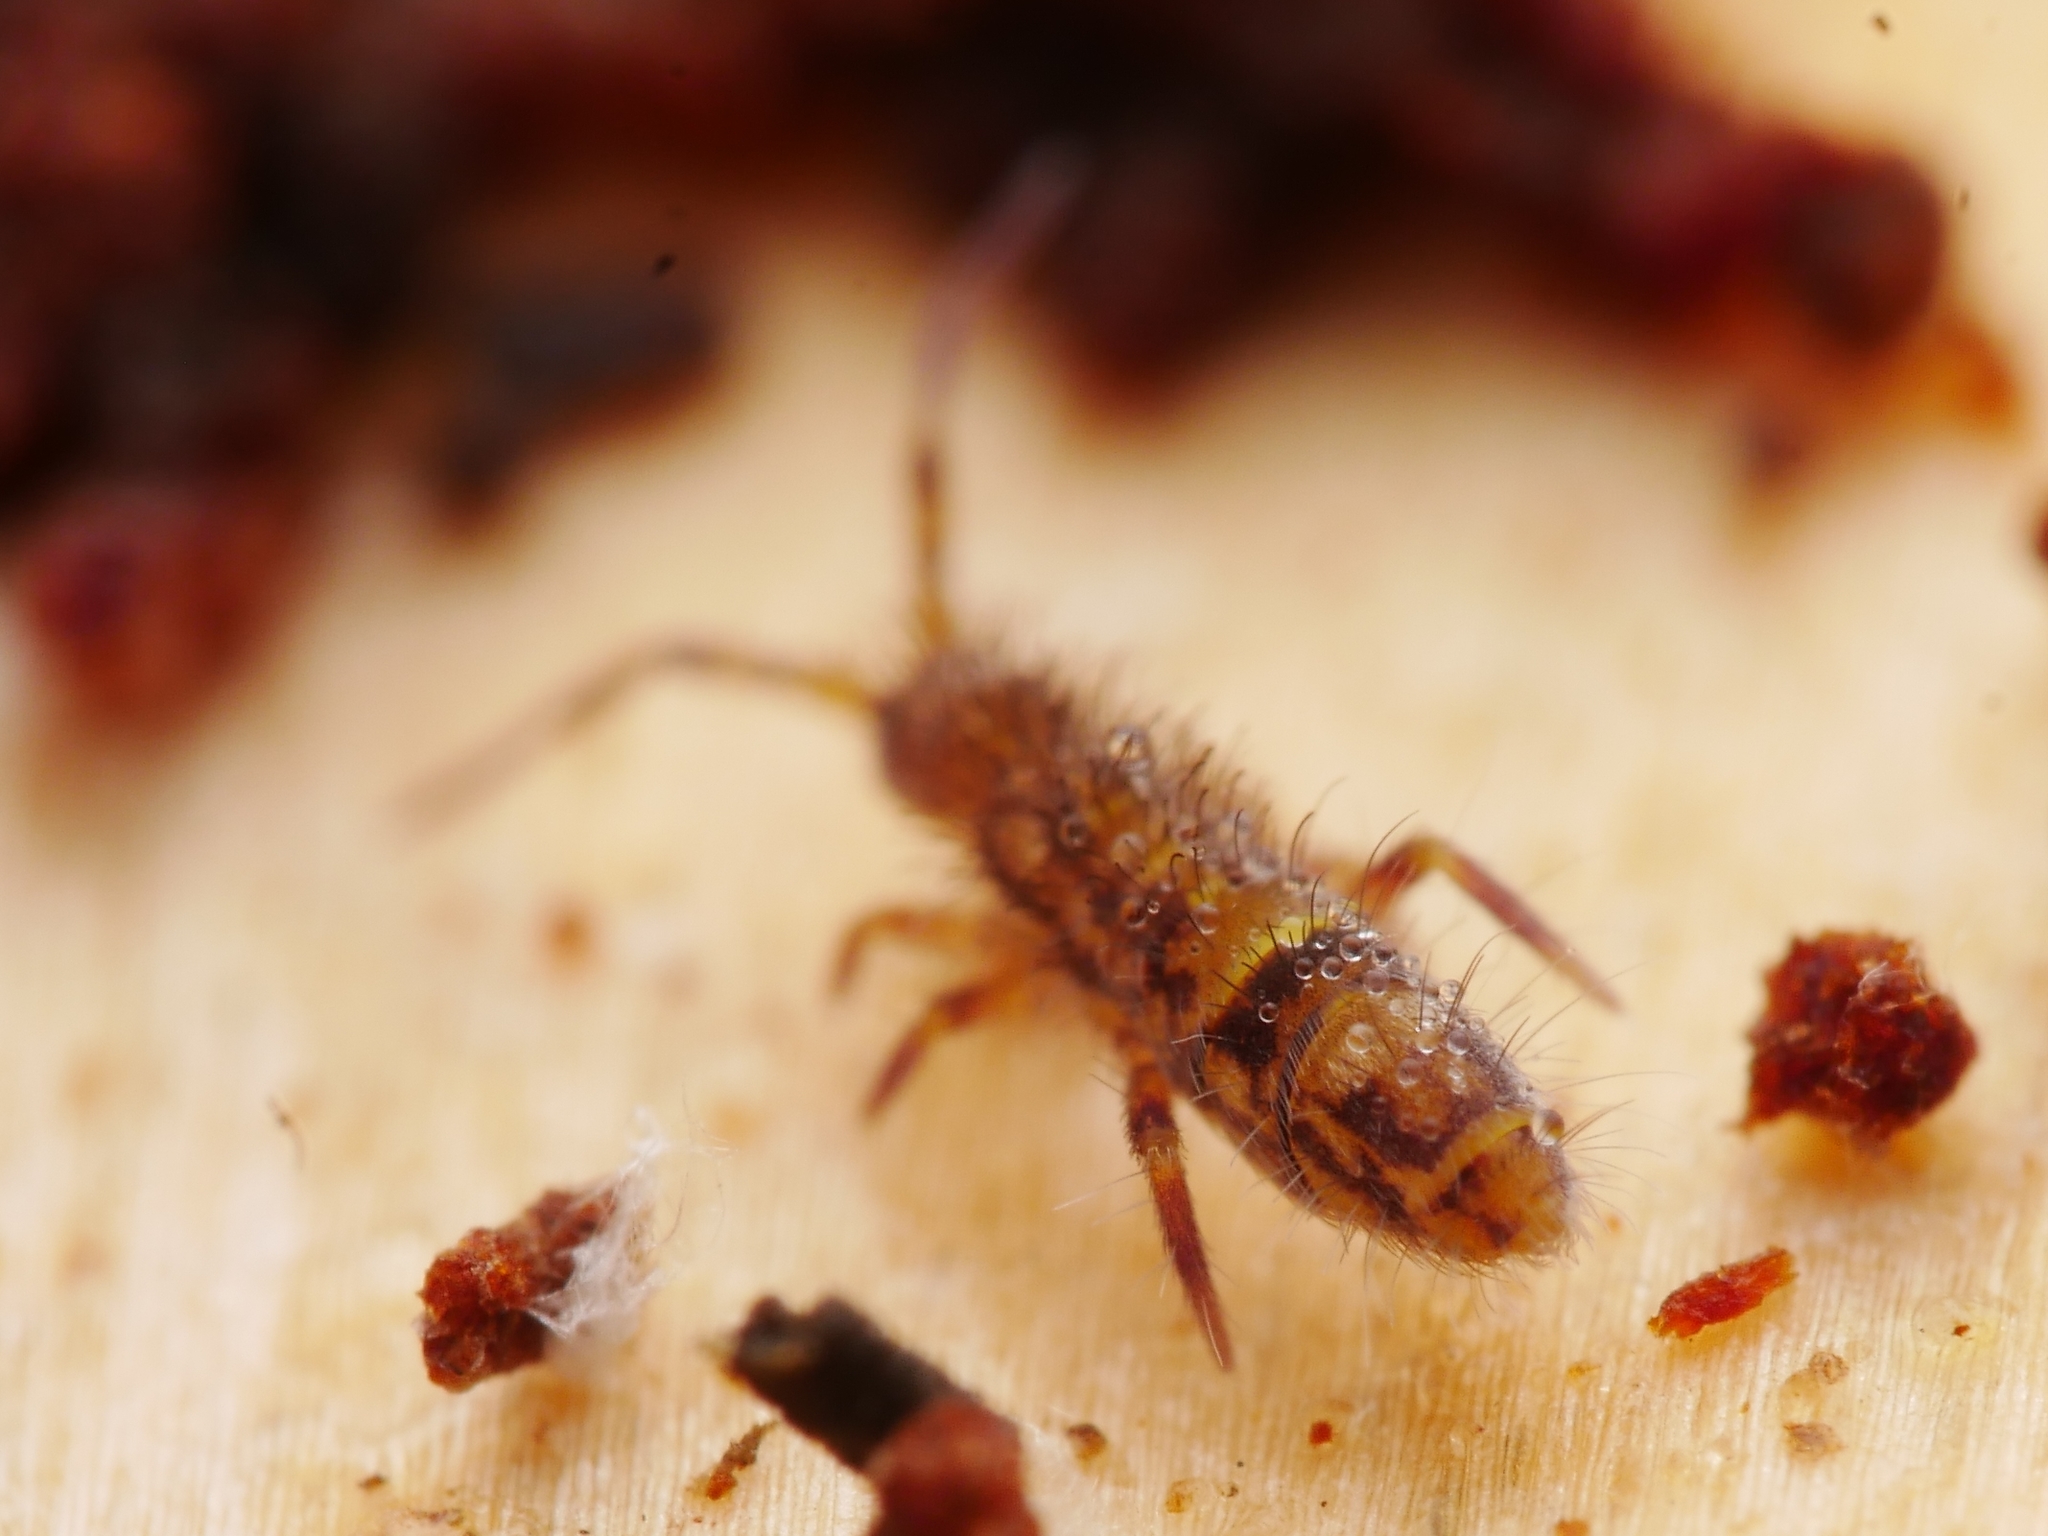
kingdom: Animalia
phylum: Arthropoda
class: Collembola
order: Entomobryomorpha
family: Orchesellidae
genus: Orchesella
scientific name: Orchesella cincta
